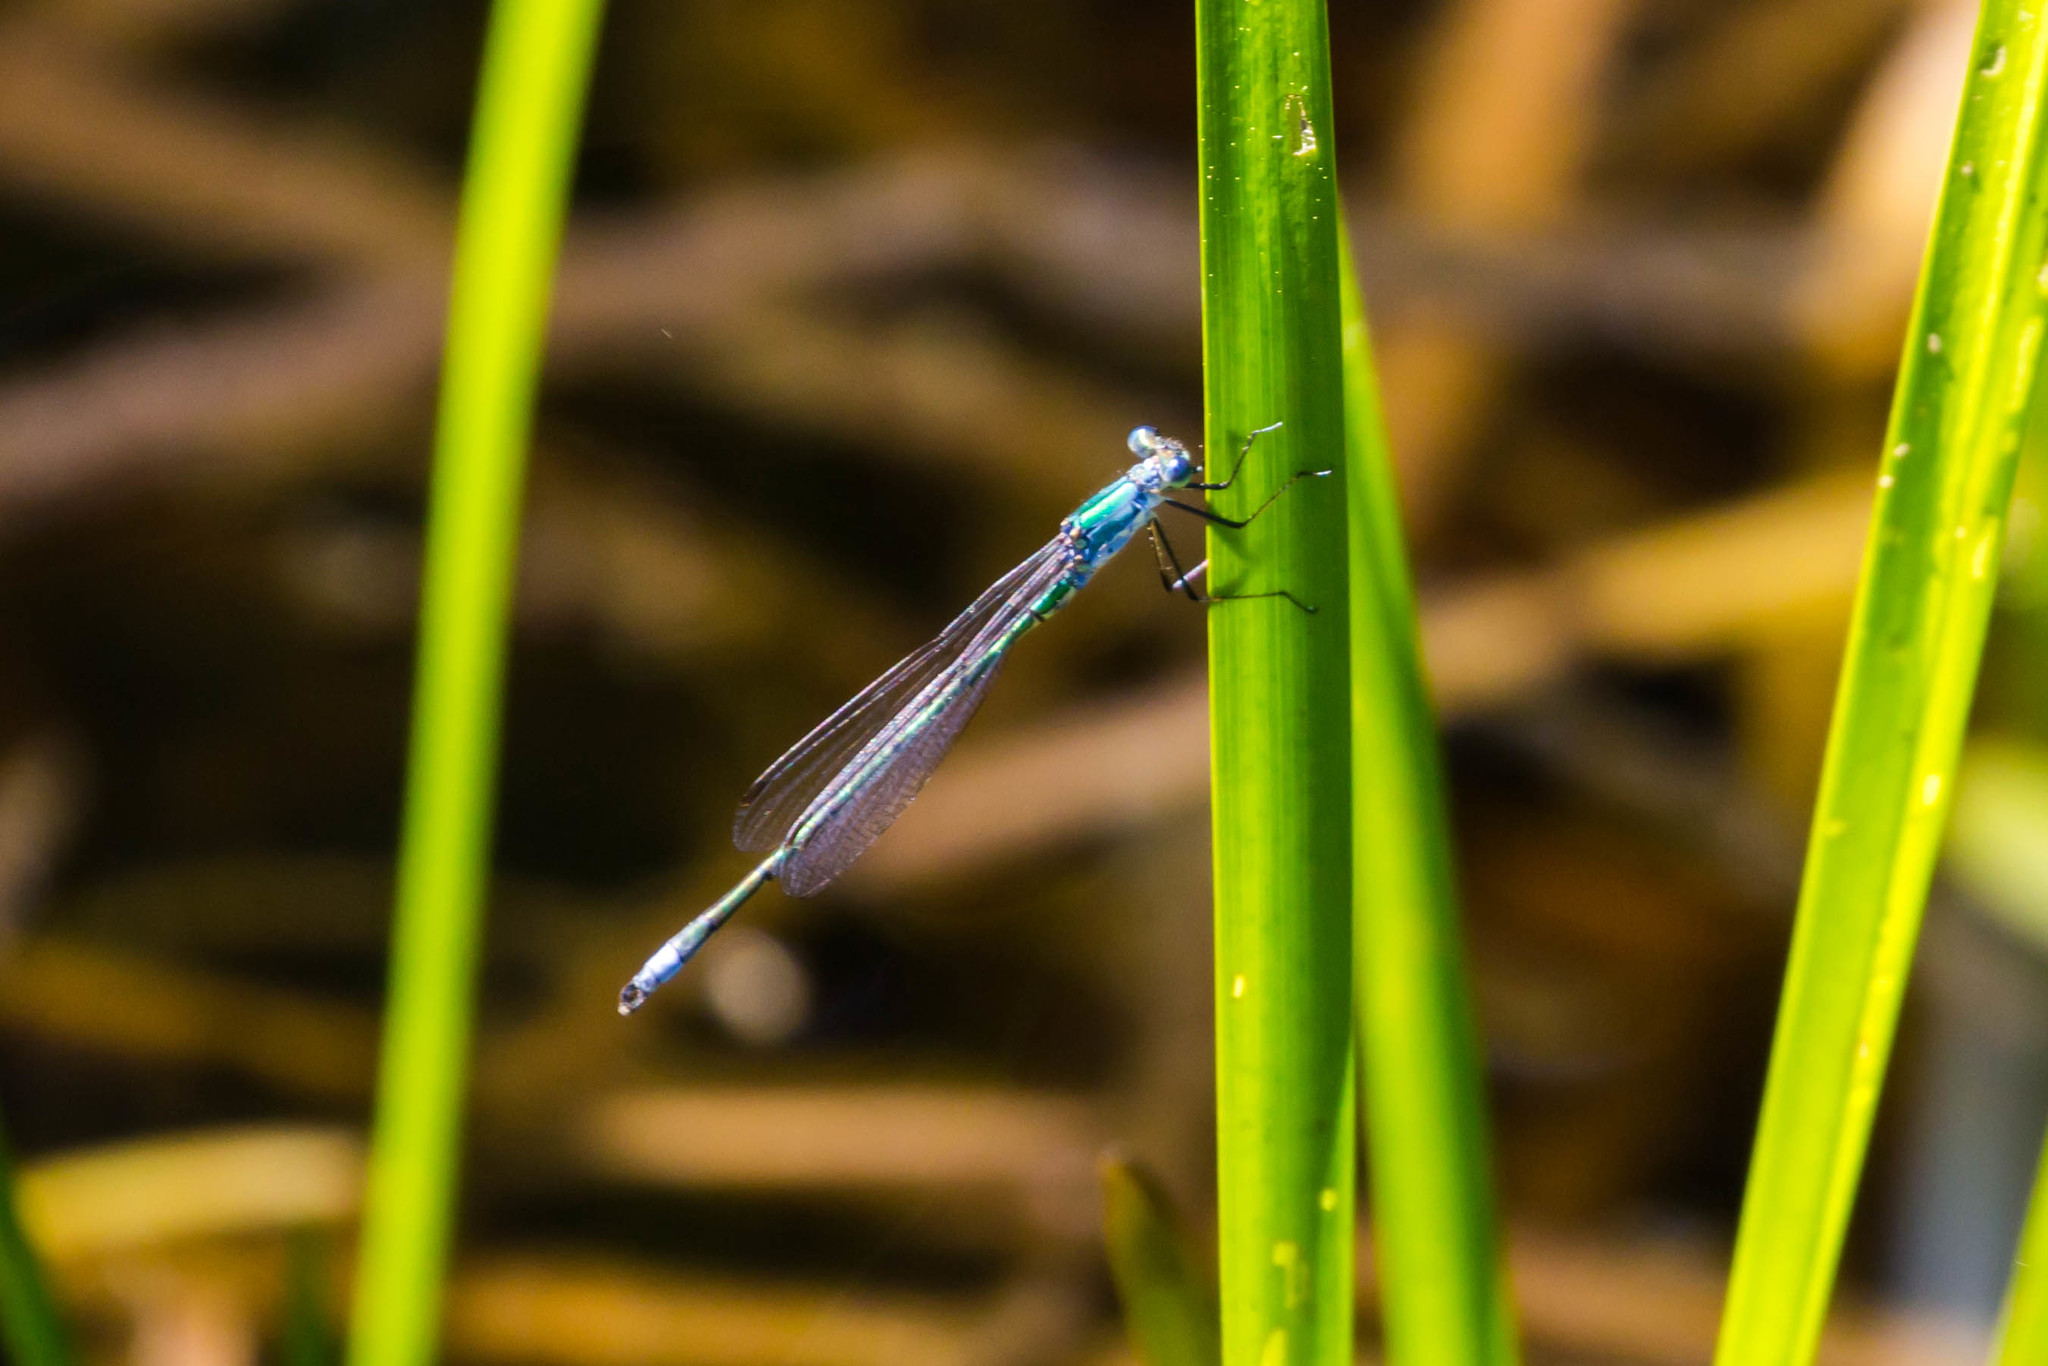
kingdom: Animalia
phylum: Arthropoda
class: Insecta
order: Odonata
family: Lestidae
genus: Lestes
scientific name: Lestes inaequalis
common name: Elegant spreadwing
